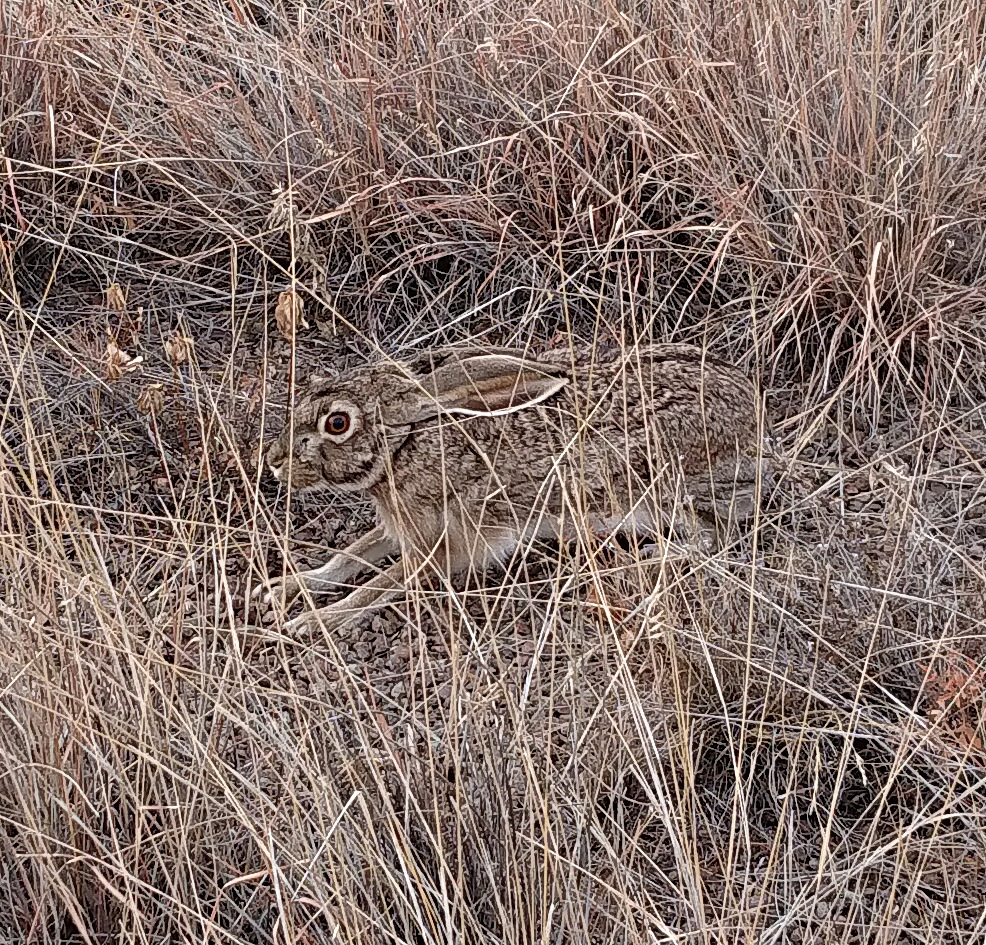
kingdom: Animalia
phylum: Chordata
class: Mammalia
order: Lagomorpha
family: Leporidae
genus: Lepus
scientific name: Lepus californicus
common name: Black-tailed jackrabbit
